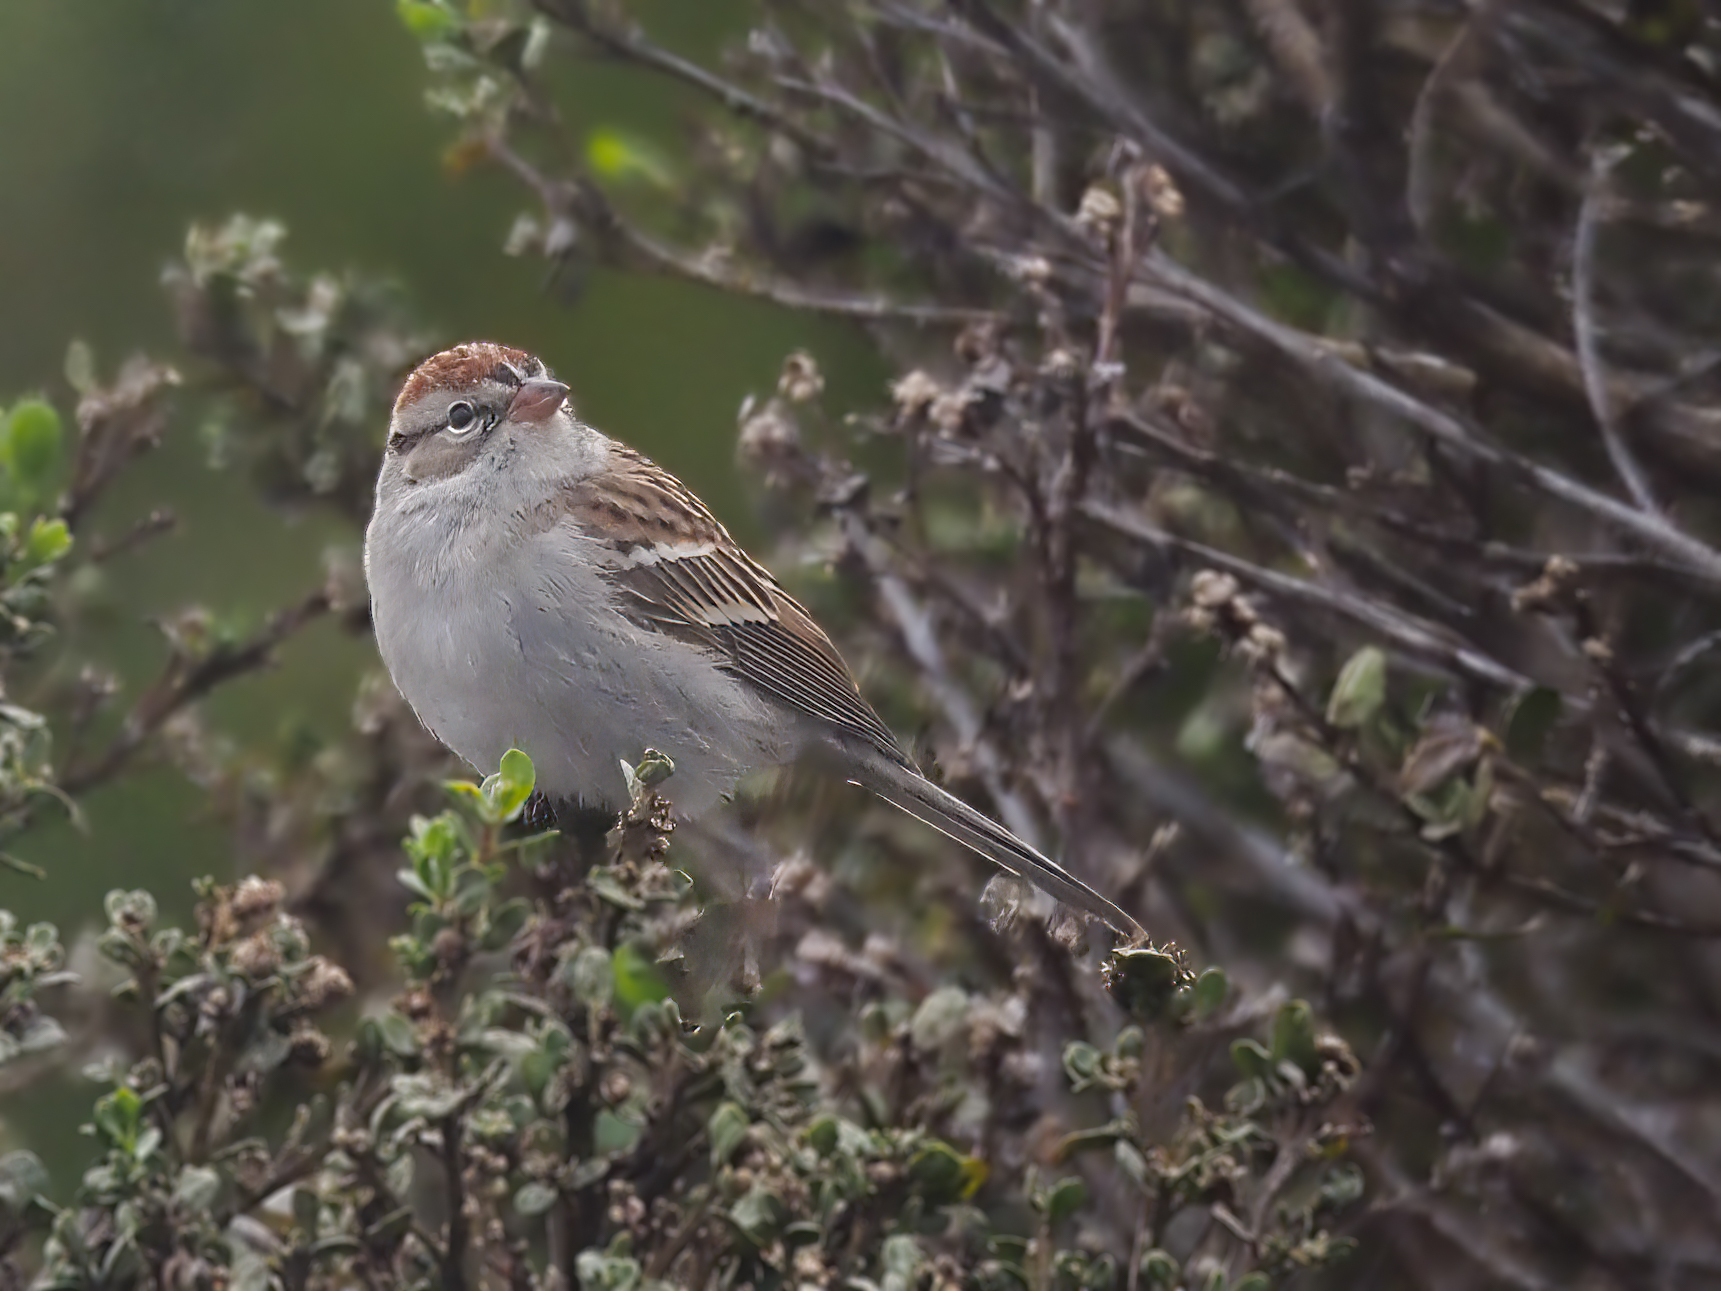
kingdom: Animalia
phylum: Chordata
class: Aves
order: Passeriformes
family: Passerellidae
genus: Spizella
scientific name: Spizella passerina
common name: Chipping sparrow
